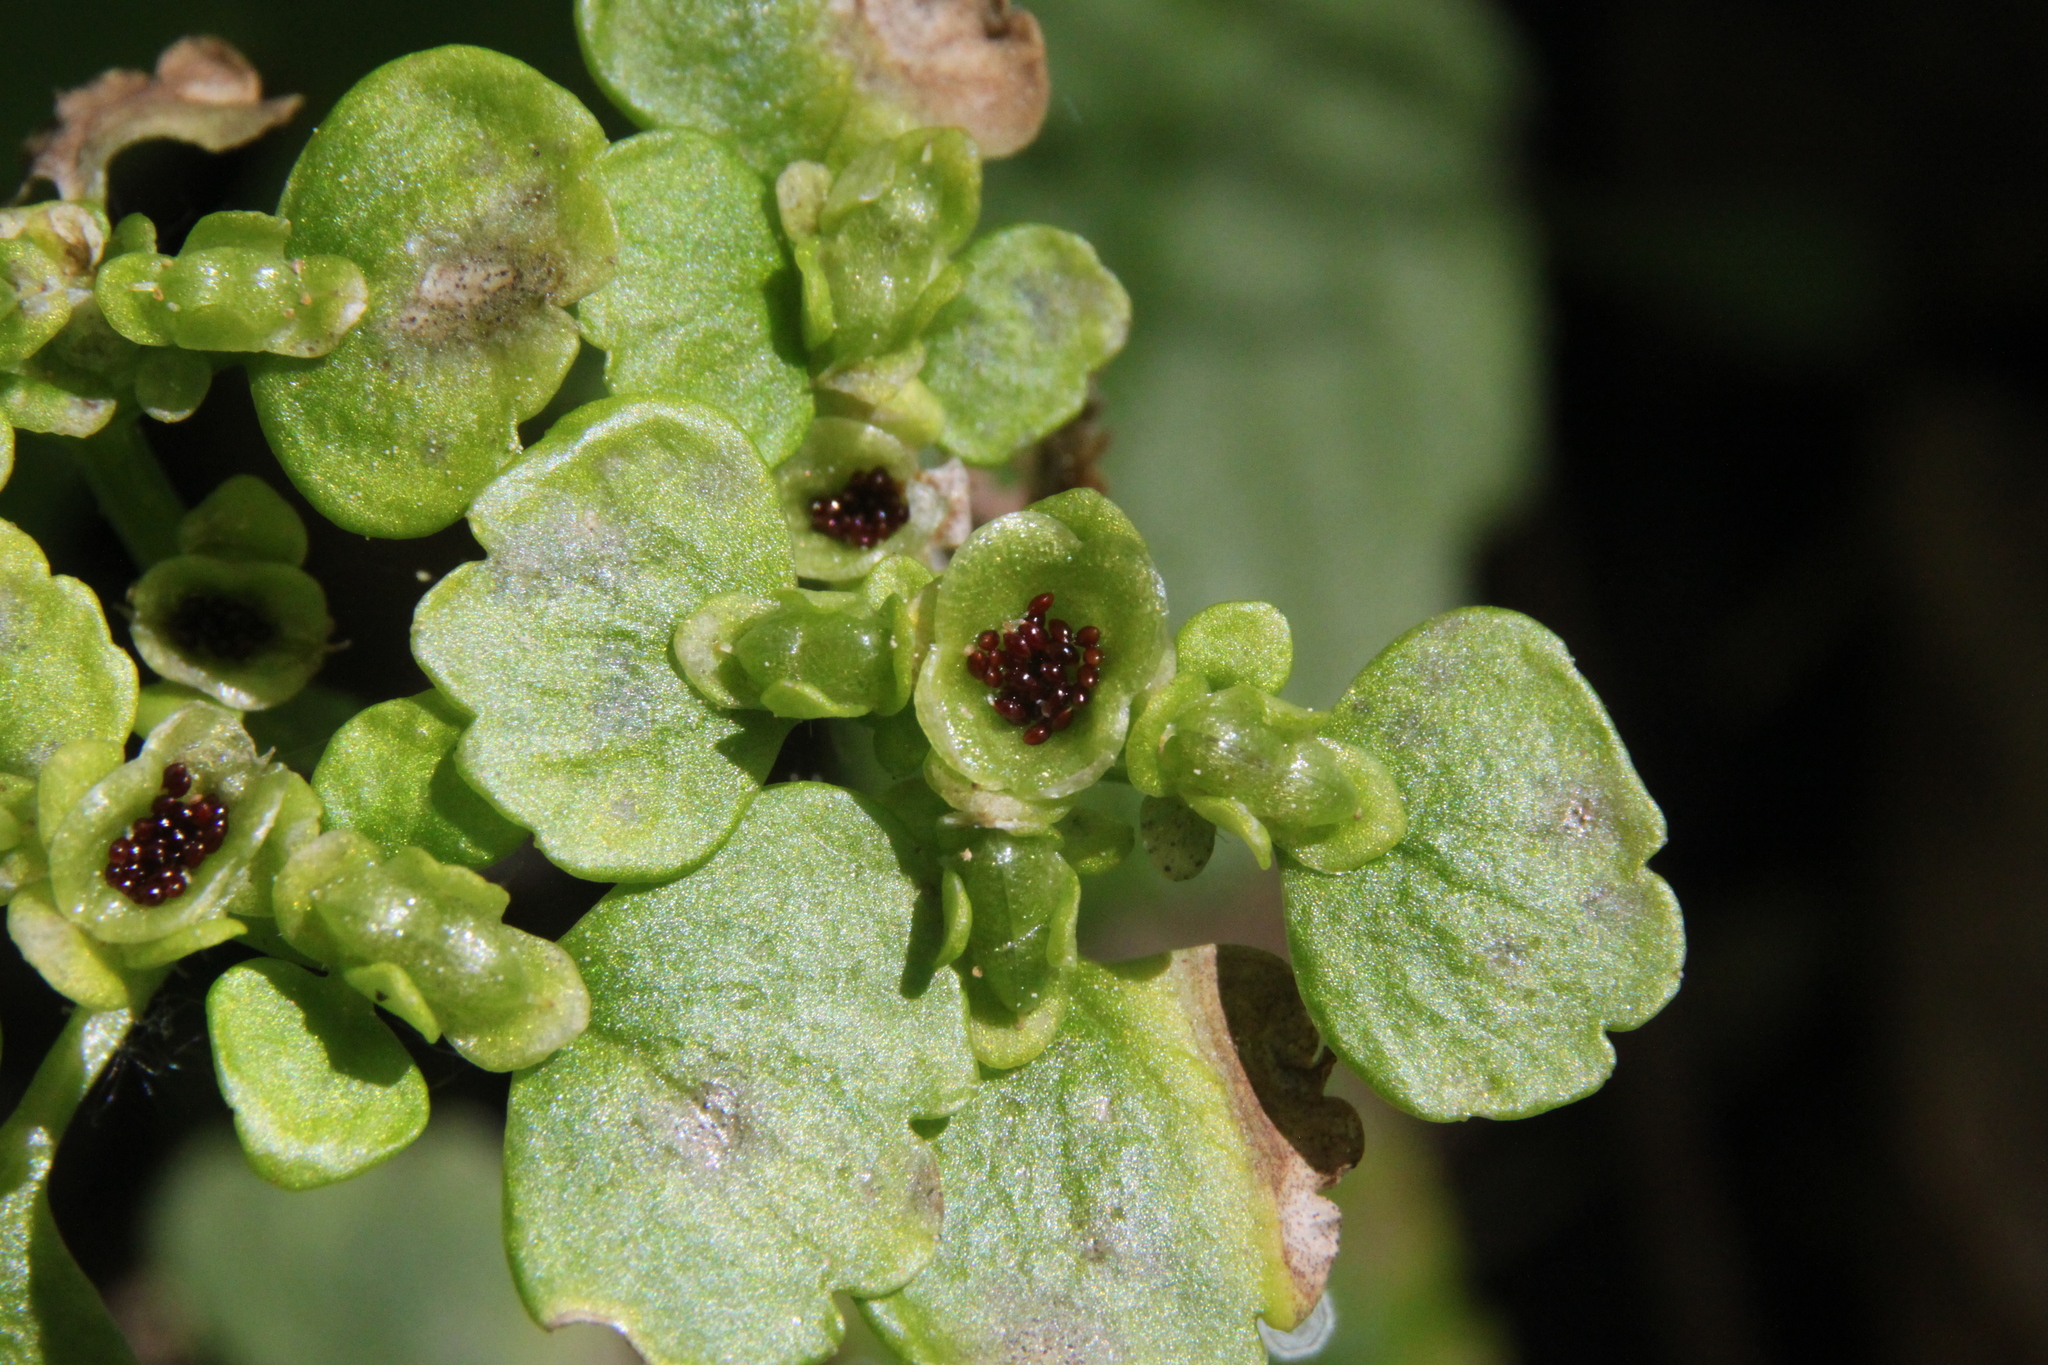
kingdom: Plantae
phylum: Tracheophyta
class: Magnoliopsida
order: Saxifragales
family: Saxifragaceae
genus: Chrysosplenium
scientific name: Chrysosplenium alternifolium
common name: Alternate-leaved golden-saxifrage
